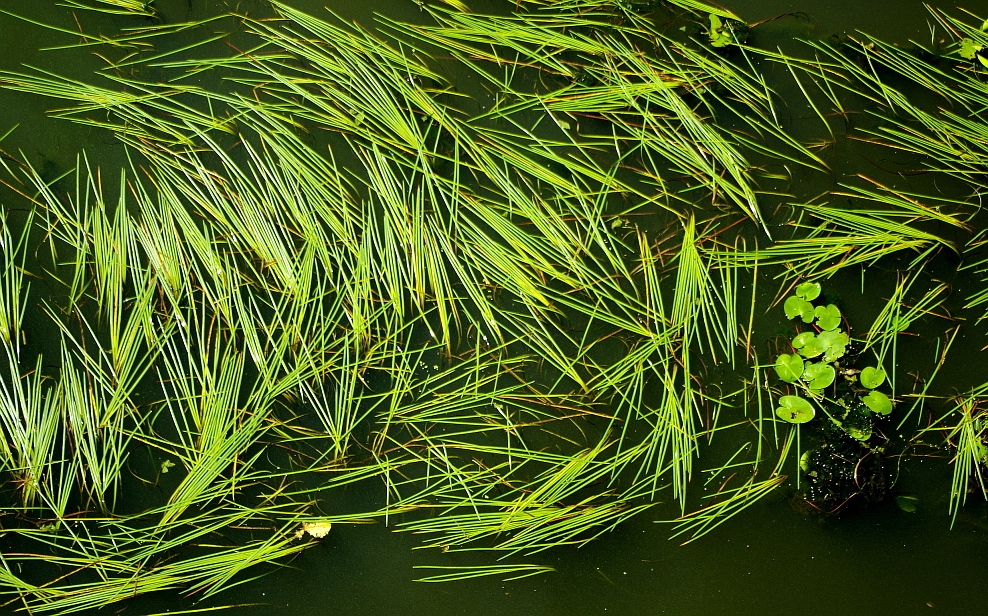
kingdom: Plantae
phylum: Tracheophyta
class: Liliopsida
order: Poales
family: Typhaceae
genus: Sparganium
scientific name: Sparganium emersum
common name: Unbranched bur-reed
